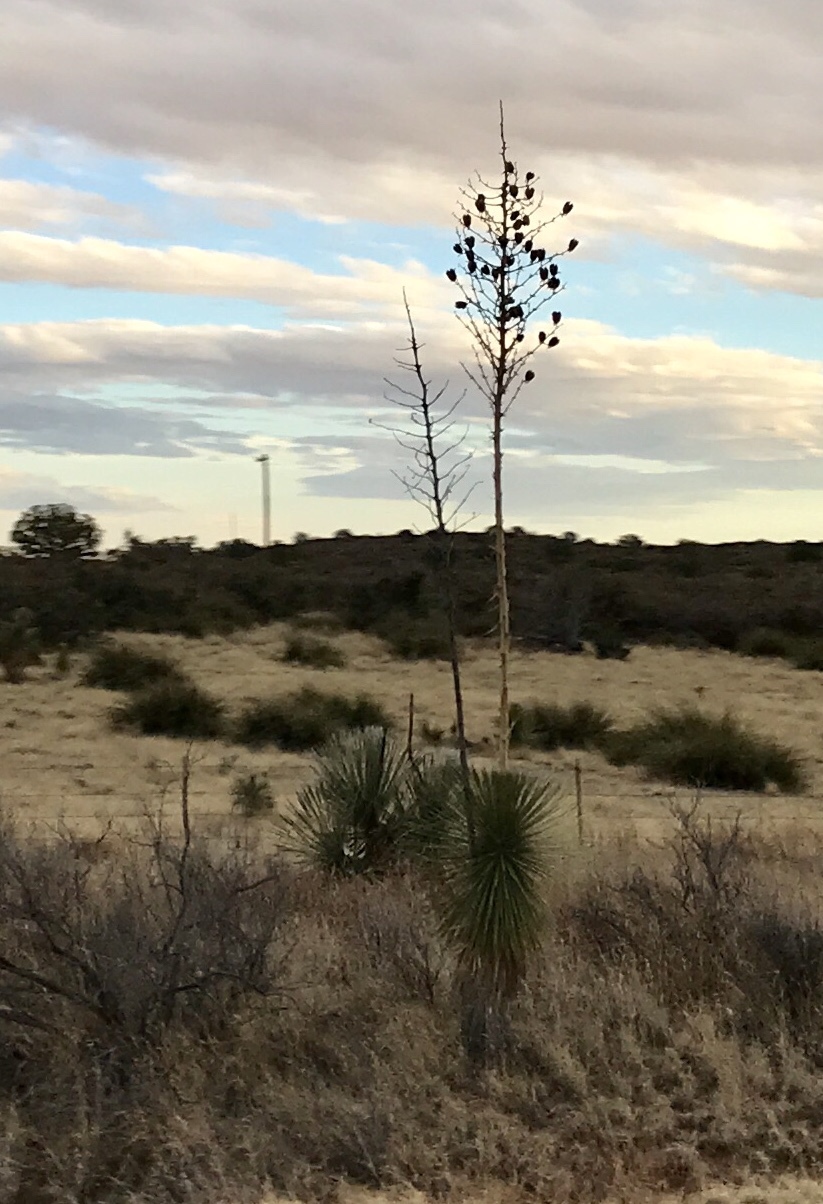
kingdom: Plantae
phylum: Tracheophyta
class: Liliopsida
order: Asparagales
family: Asparagaceae
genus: Yucca
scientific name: Yucca elata
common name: Palmella
